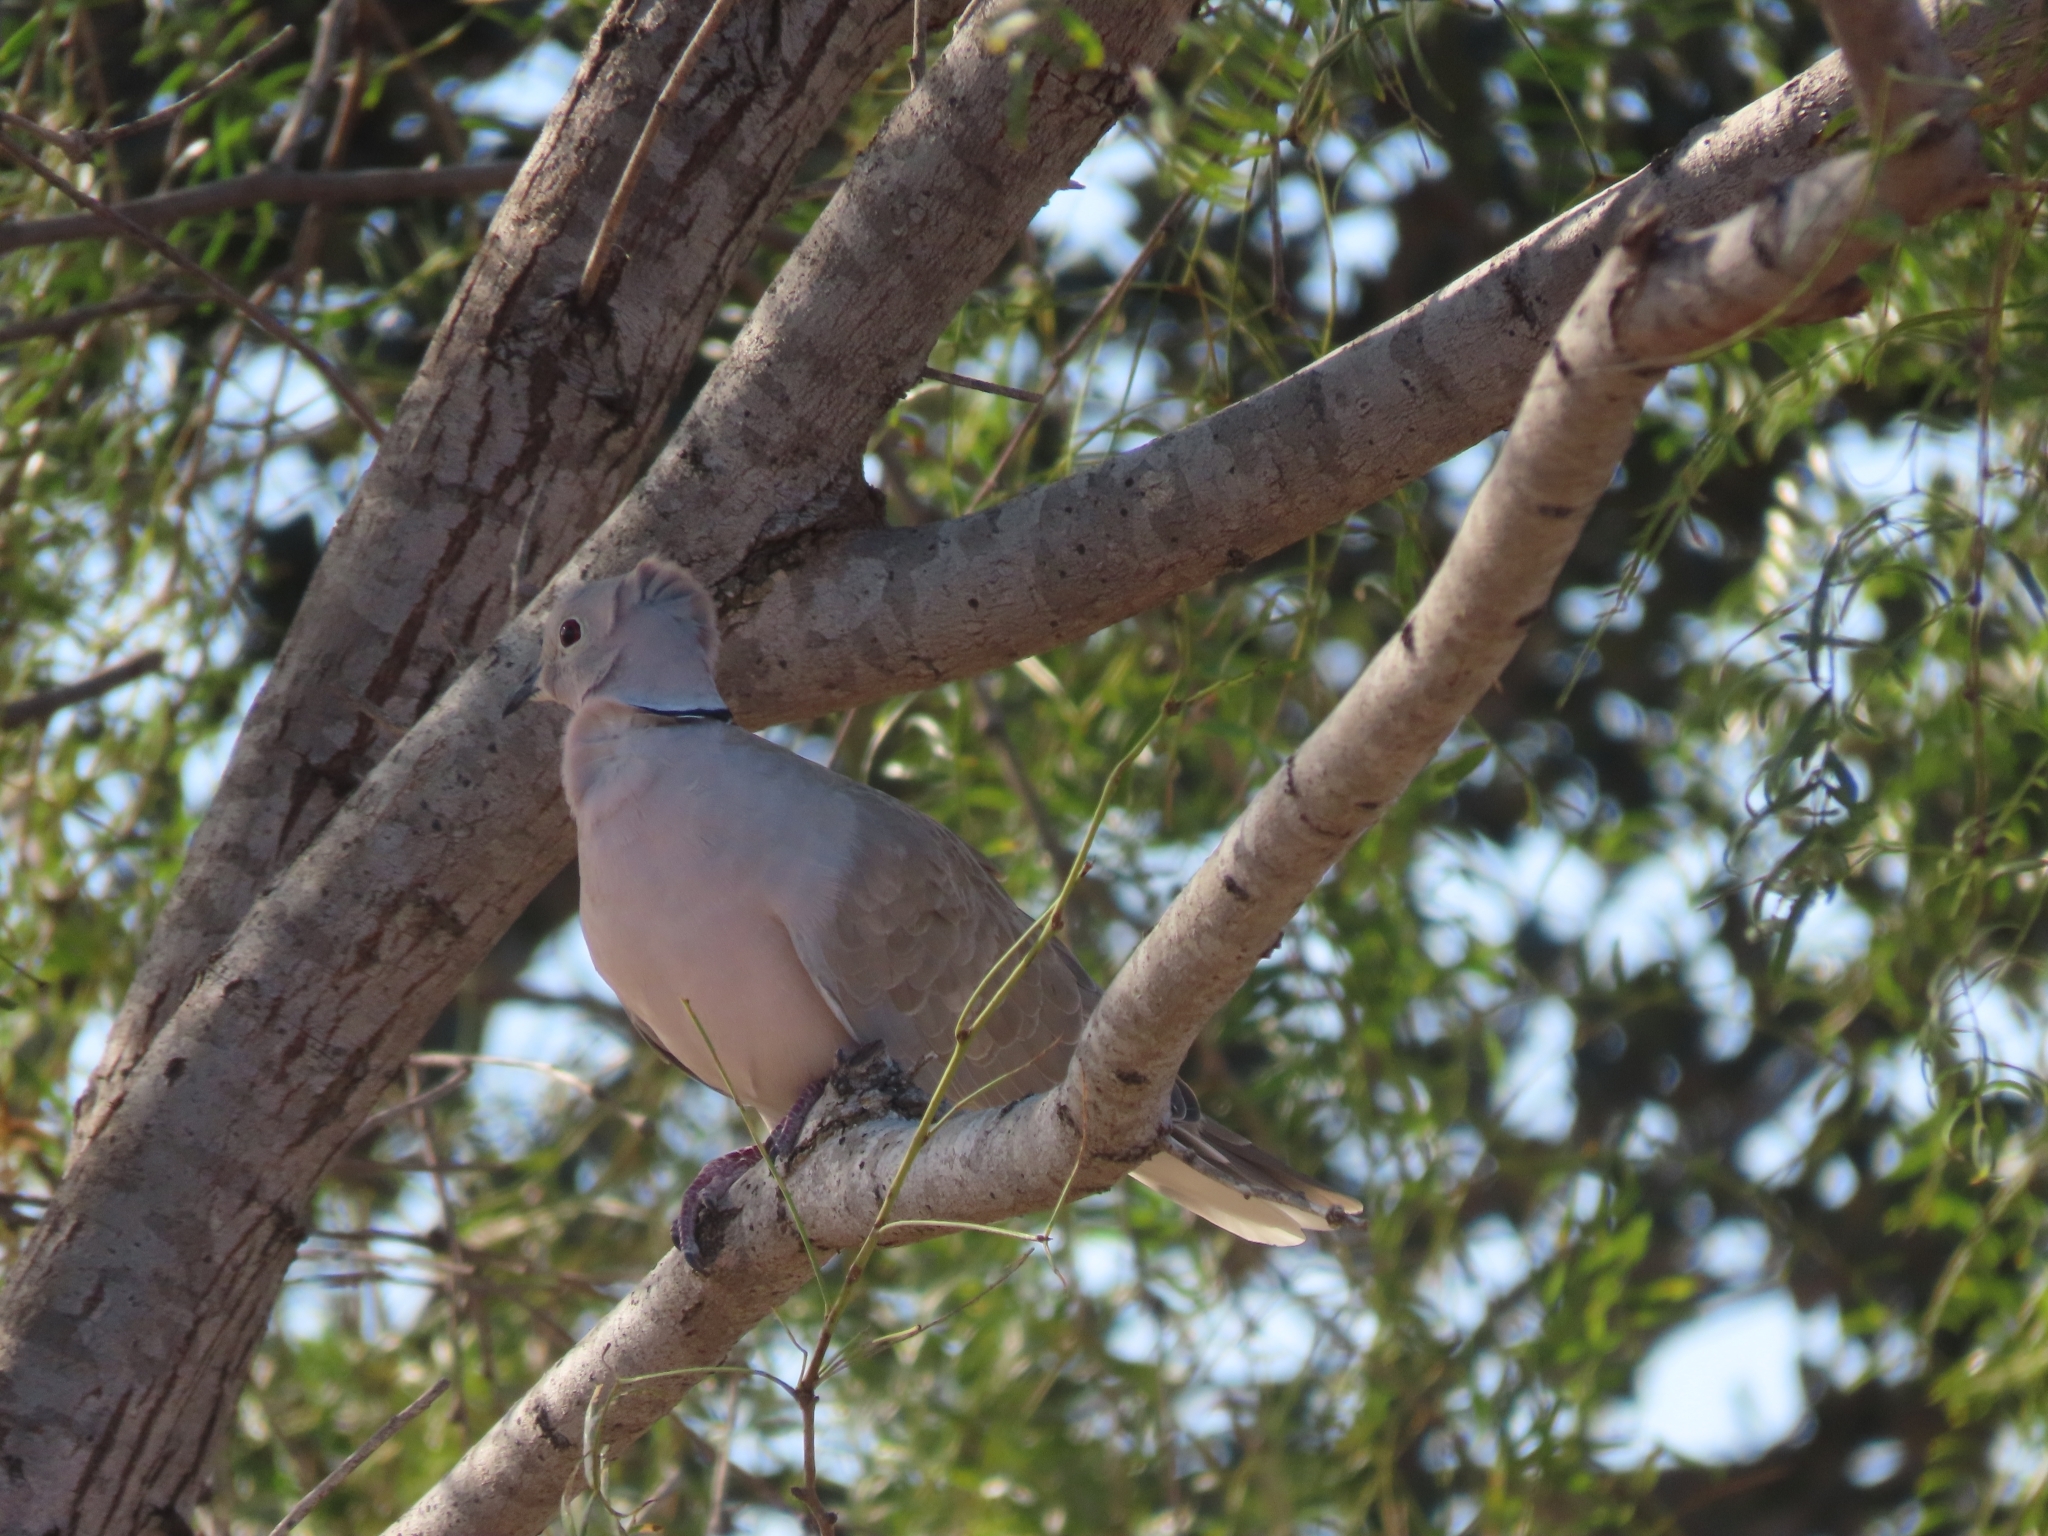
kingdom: Animalia
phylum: Chordata
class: Aves
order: Columbiformes
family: Columbidae
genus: Streptopelia
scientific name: Streptopelia decaocto
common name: Eurasian collared dove
